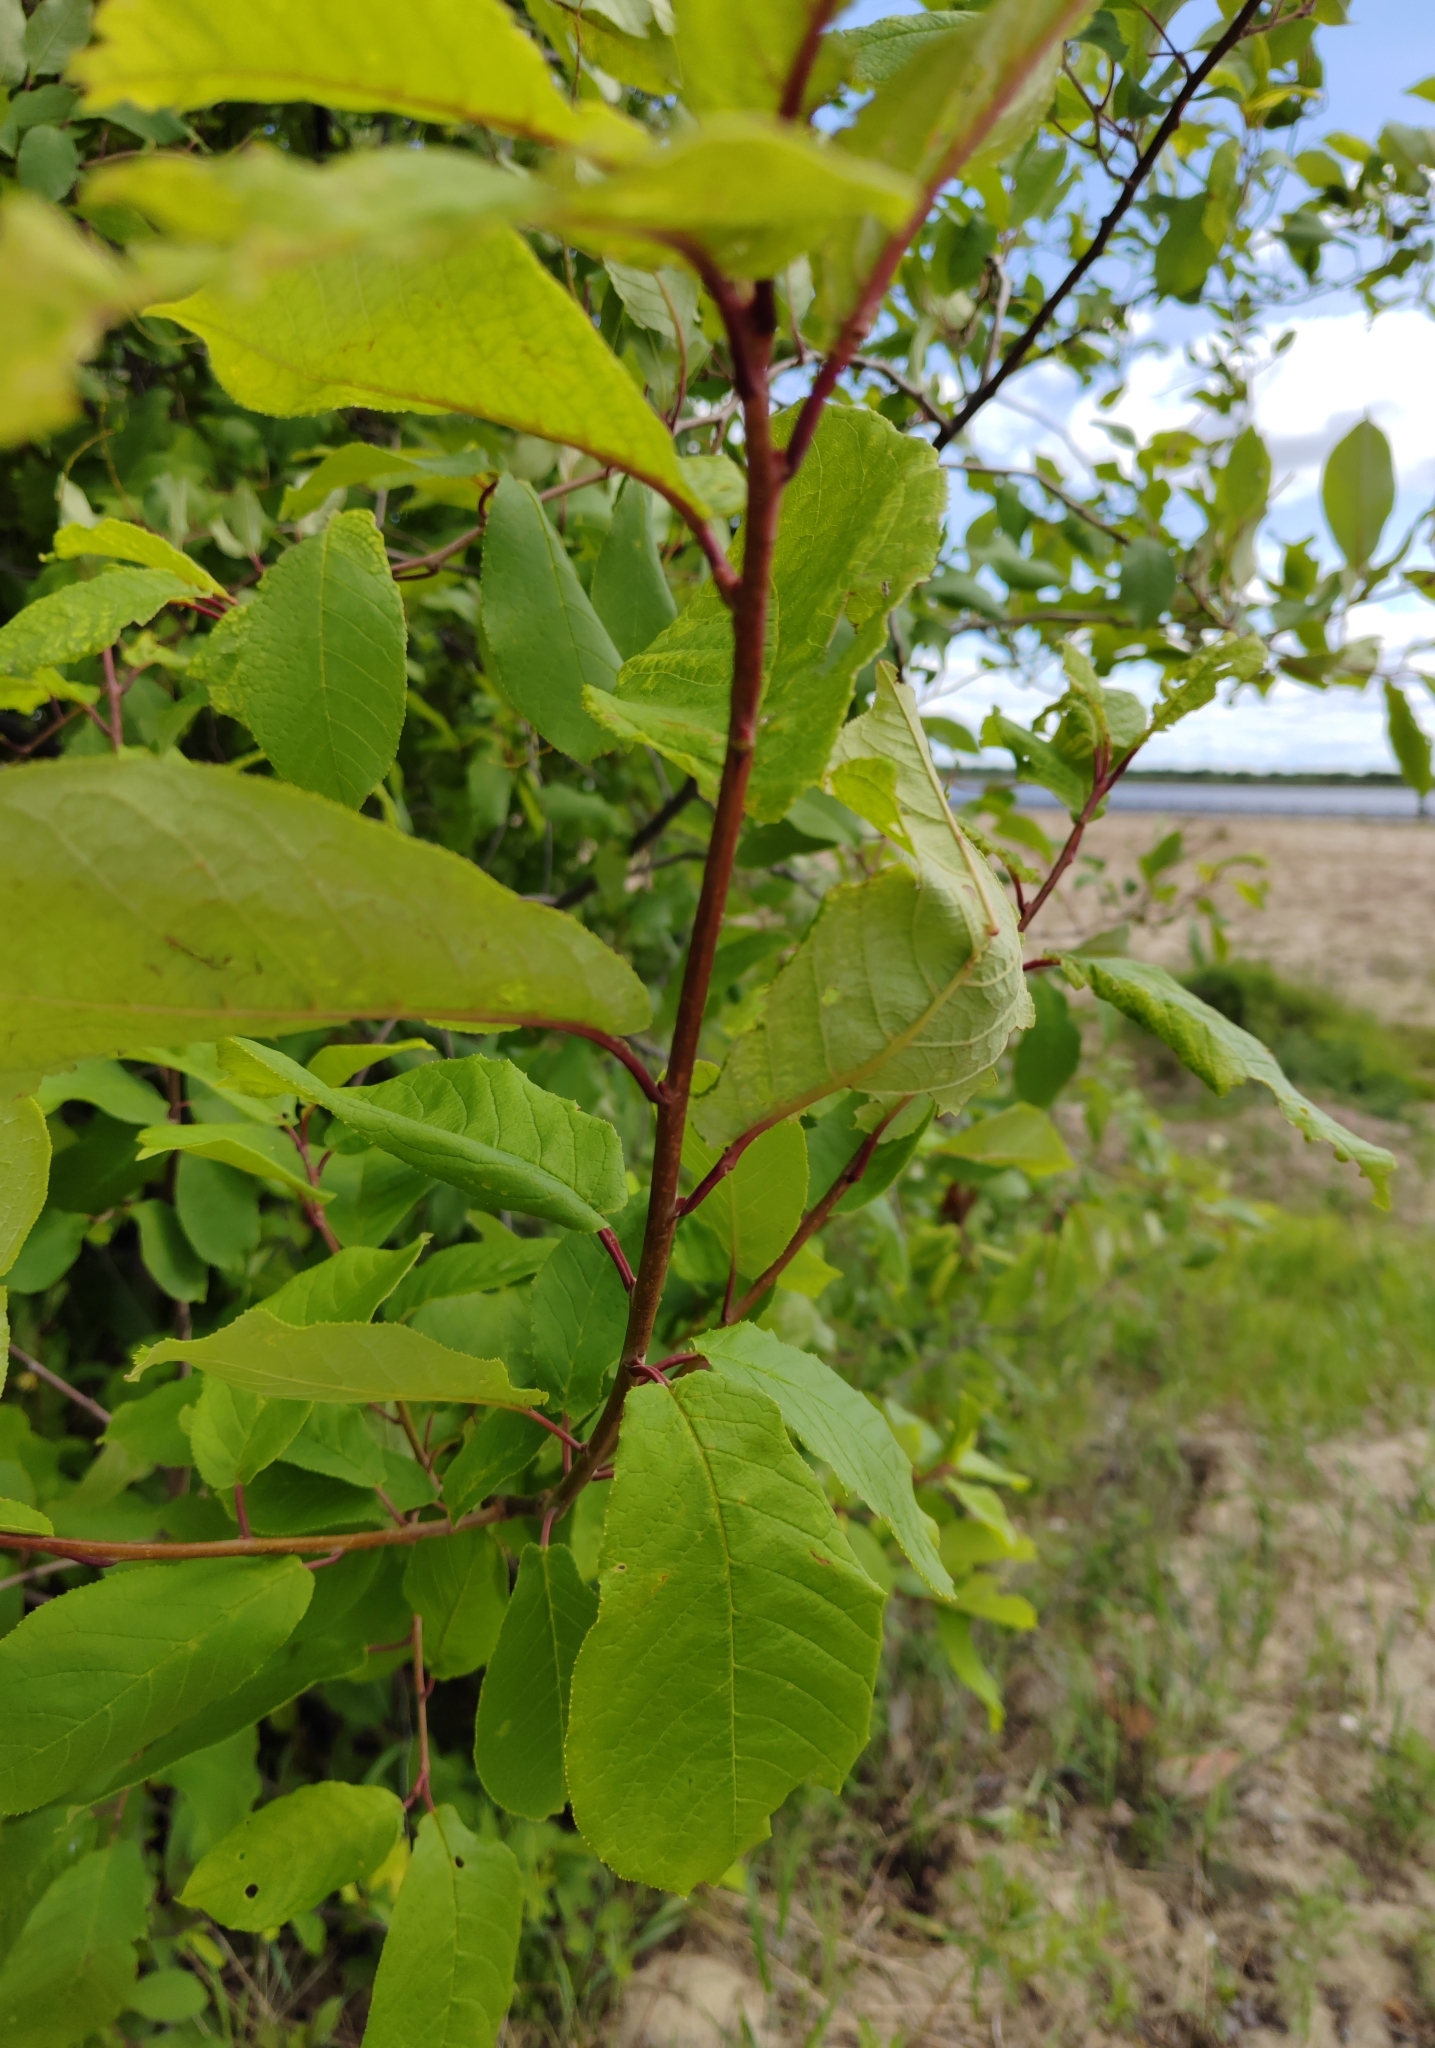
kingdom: Plantae
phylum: Tracheophyta
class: Magnoliopsida
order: Rosales
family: Rosaceae
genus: Prunus
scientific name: Prunus padus
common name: Bird cherry
